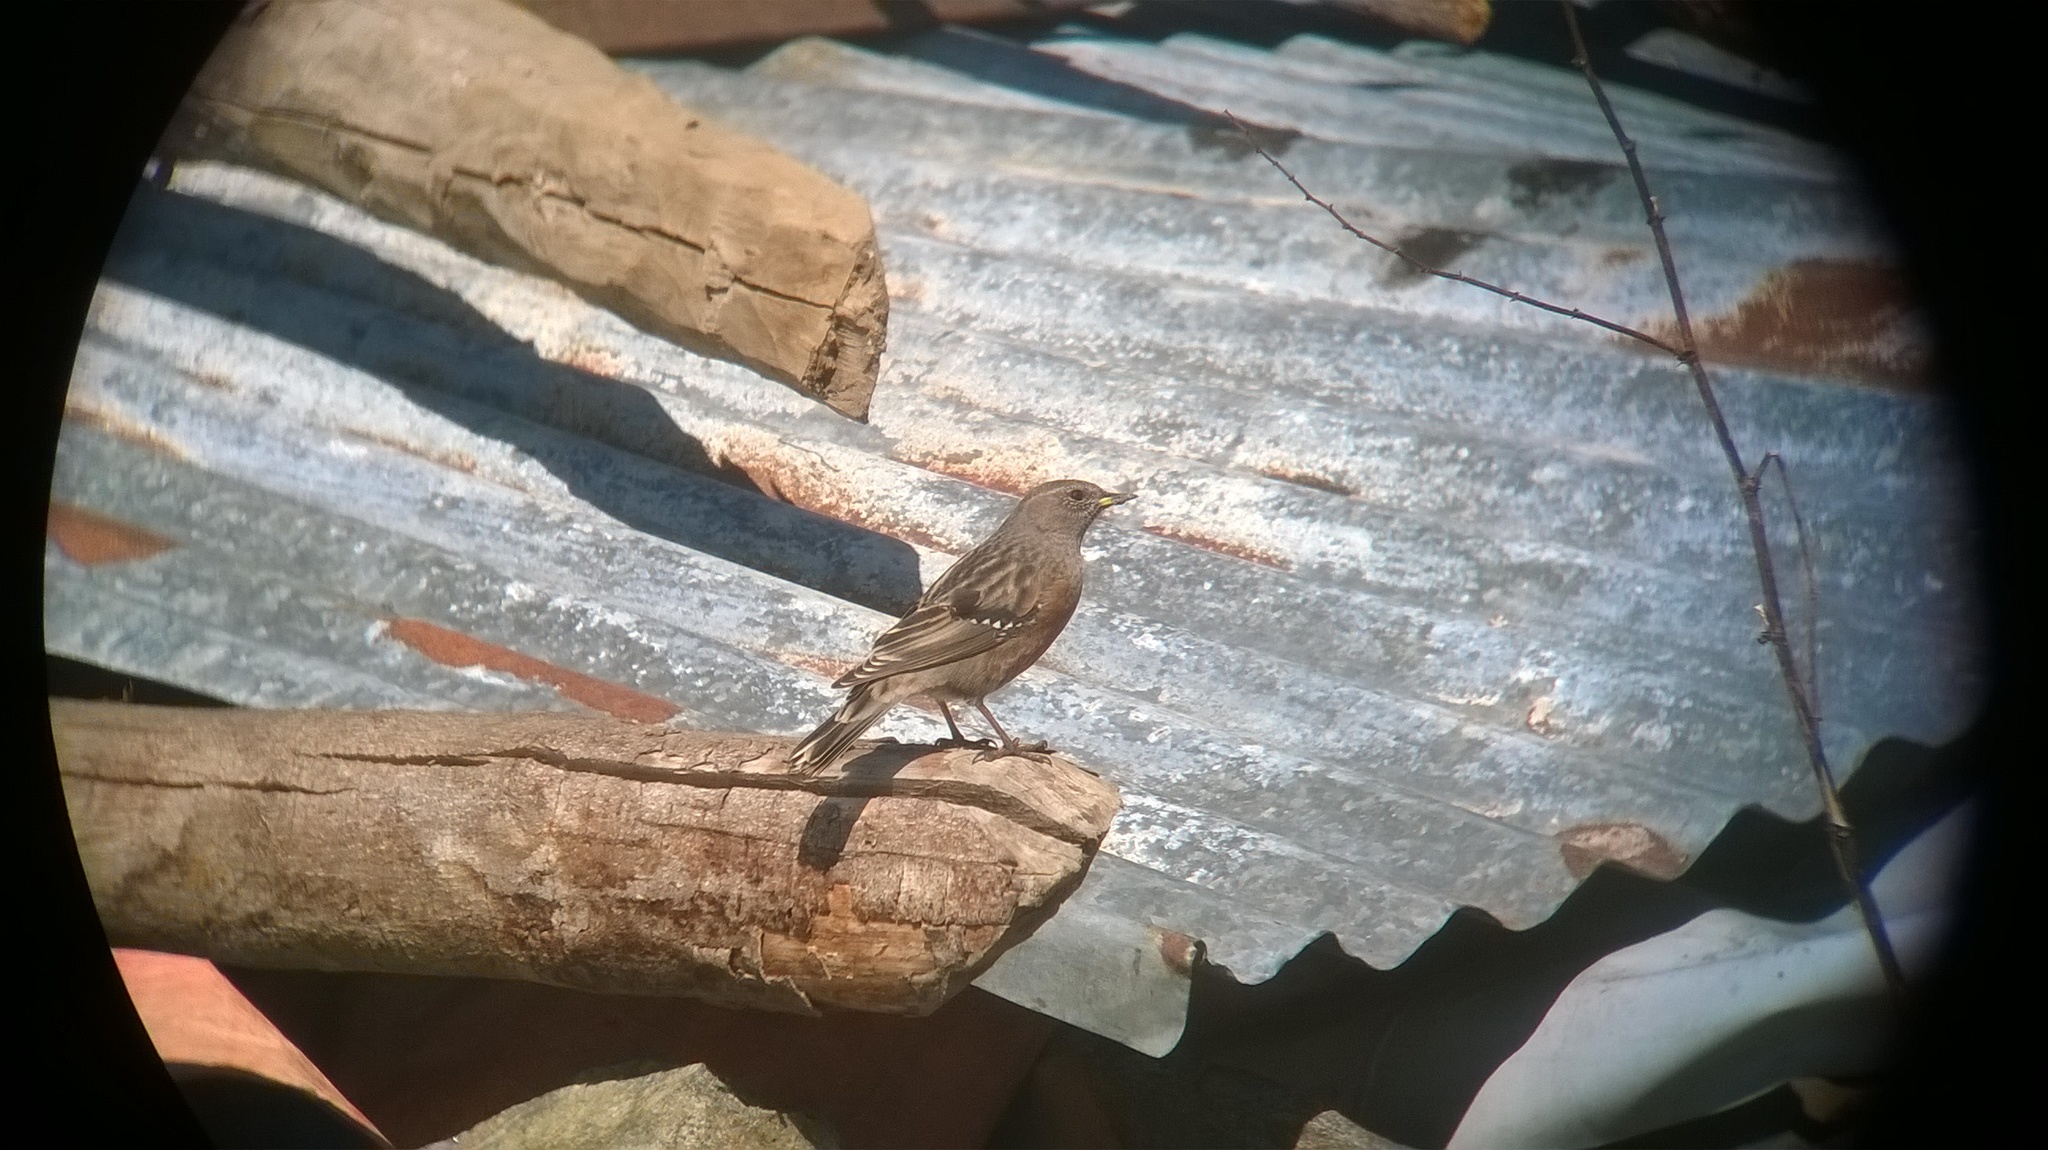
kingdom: Animalia
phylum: Chordata
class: Aves
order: Passeriformes
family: Prunellidae
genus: Prunella
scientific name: Prunella collaris
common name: Alpine accentor
